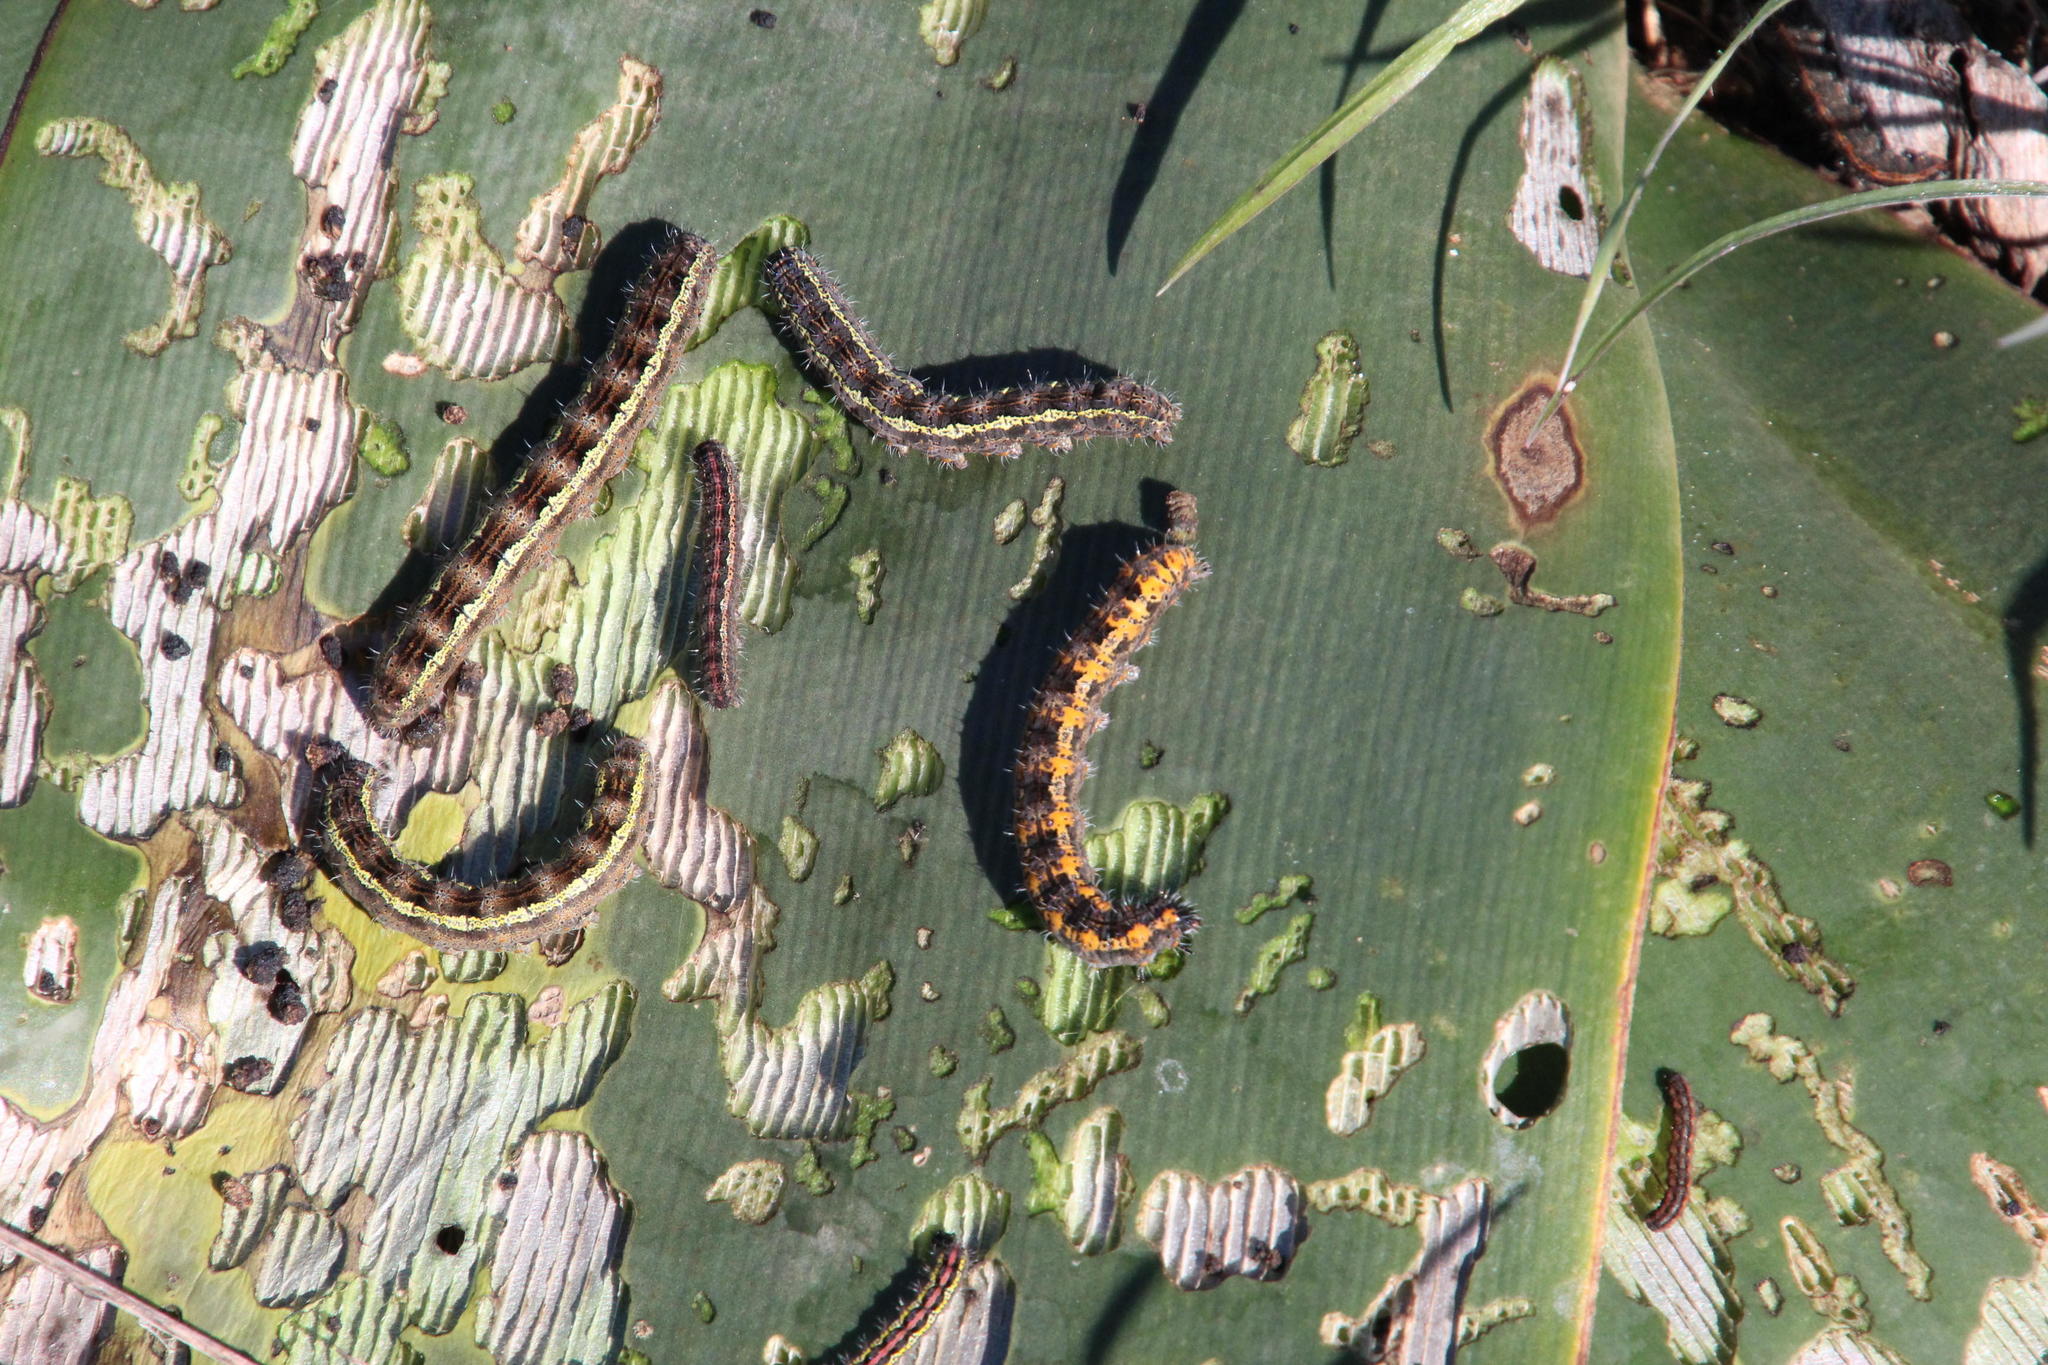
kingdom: Plantae
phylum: Tracheophyta
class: Liliopsida
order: Asparagales
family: Amaryllidaceae
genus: Brunsvigia
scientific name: Brunsvigia bosmaniae
